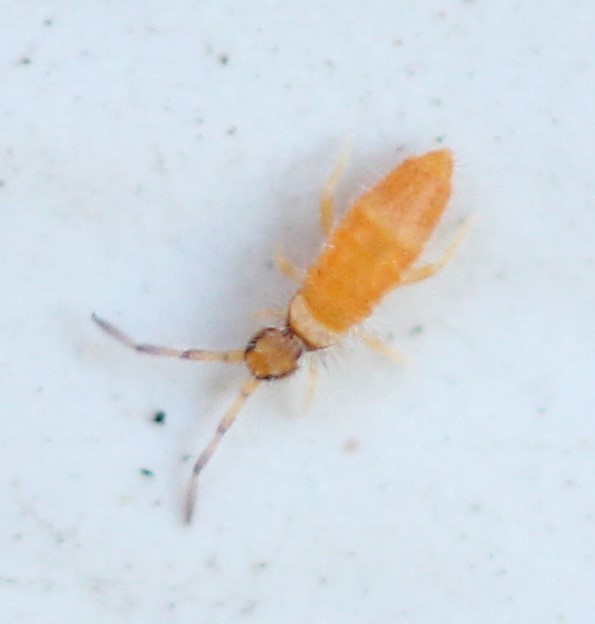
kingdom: Animalia
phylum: Arthropoda
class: Collembola
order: Entomobryomorpha
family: Entomobryidae
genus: Entomobrya
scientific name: Entomobrya atrocincta
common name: Springtail
